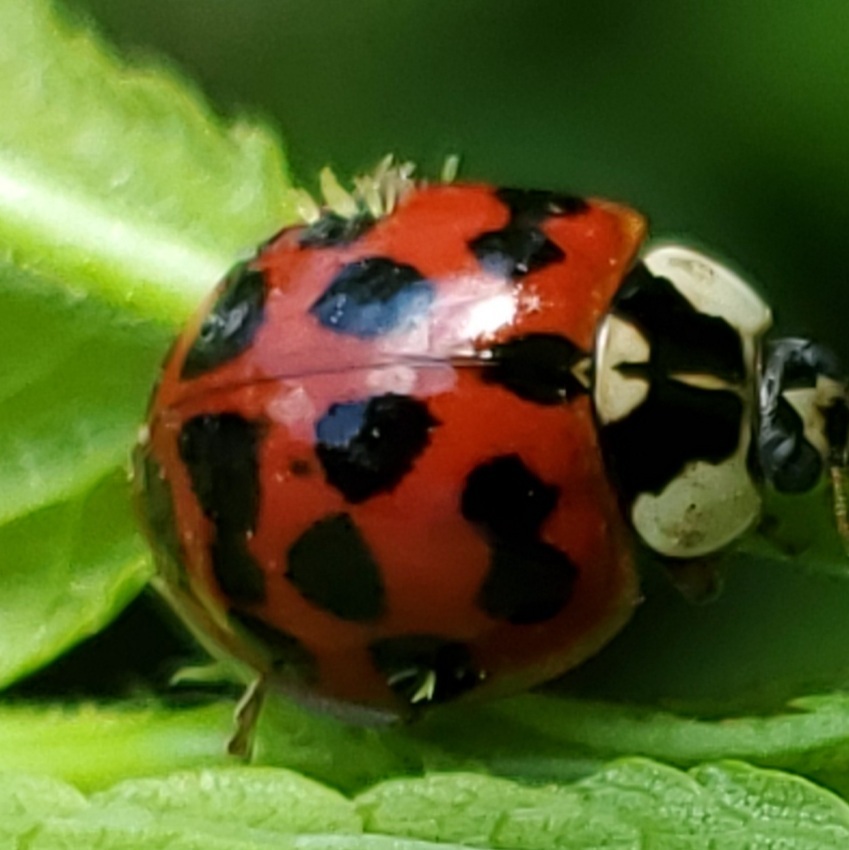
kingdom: Fungi
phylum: Ascomycota
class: Laboulbeniomycetes
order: Laboulbeniales
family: Laboulbeniaceae
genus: Hesperomyces
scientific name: Hesperomyces harmoniae
